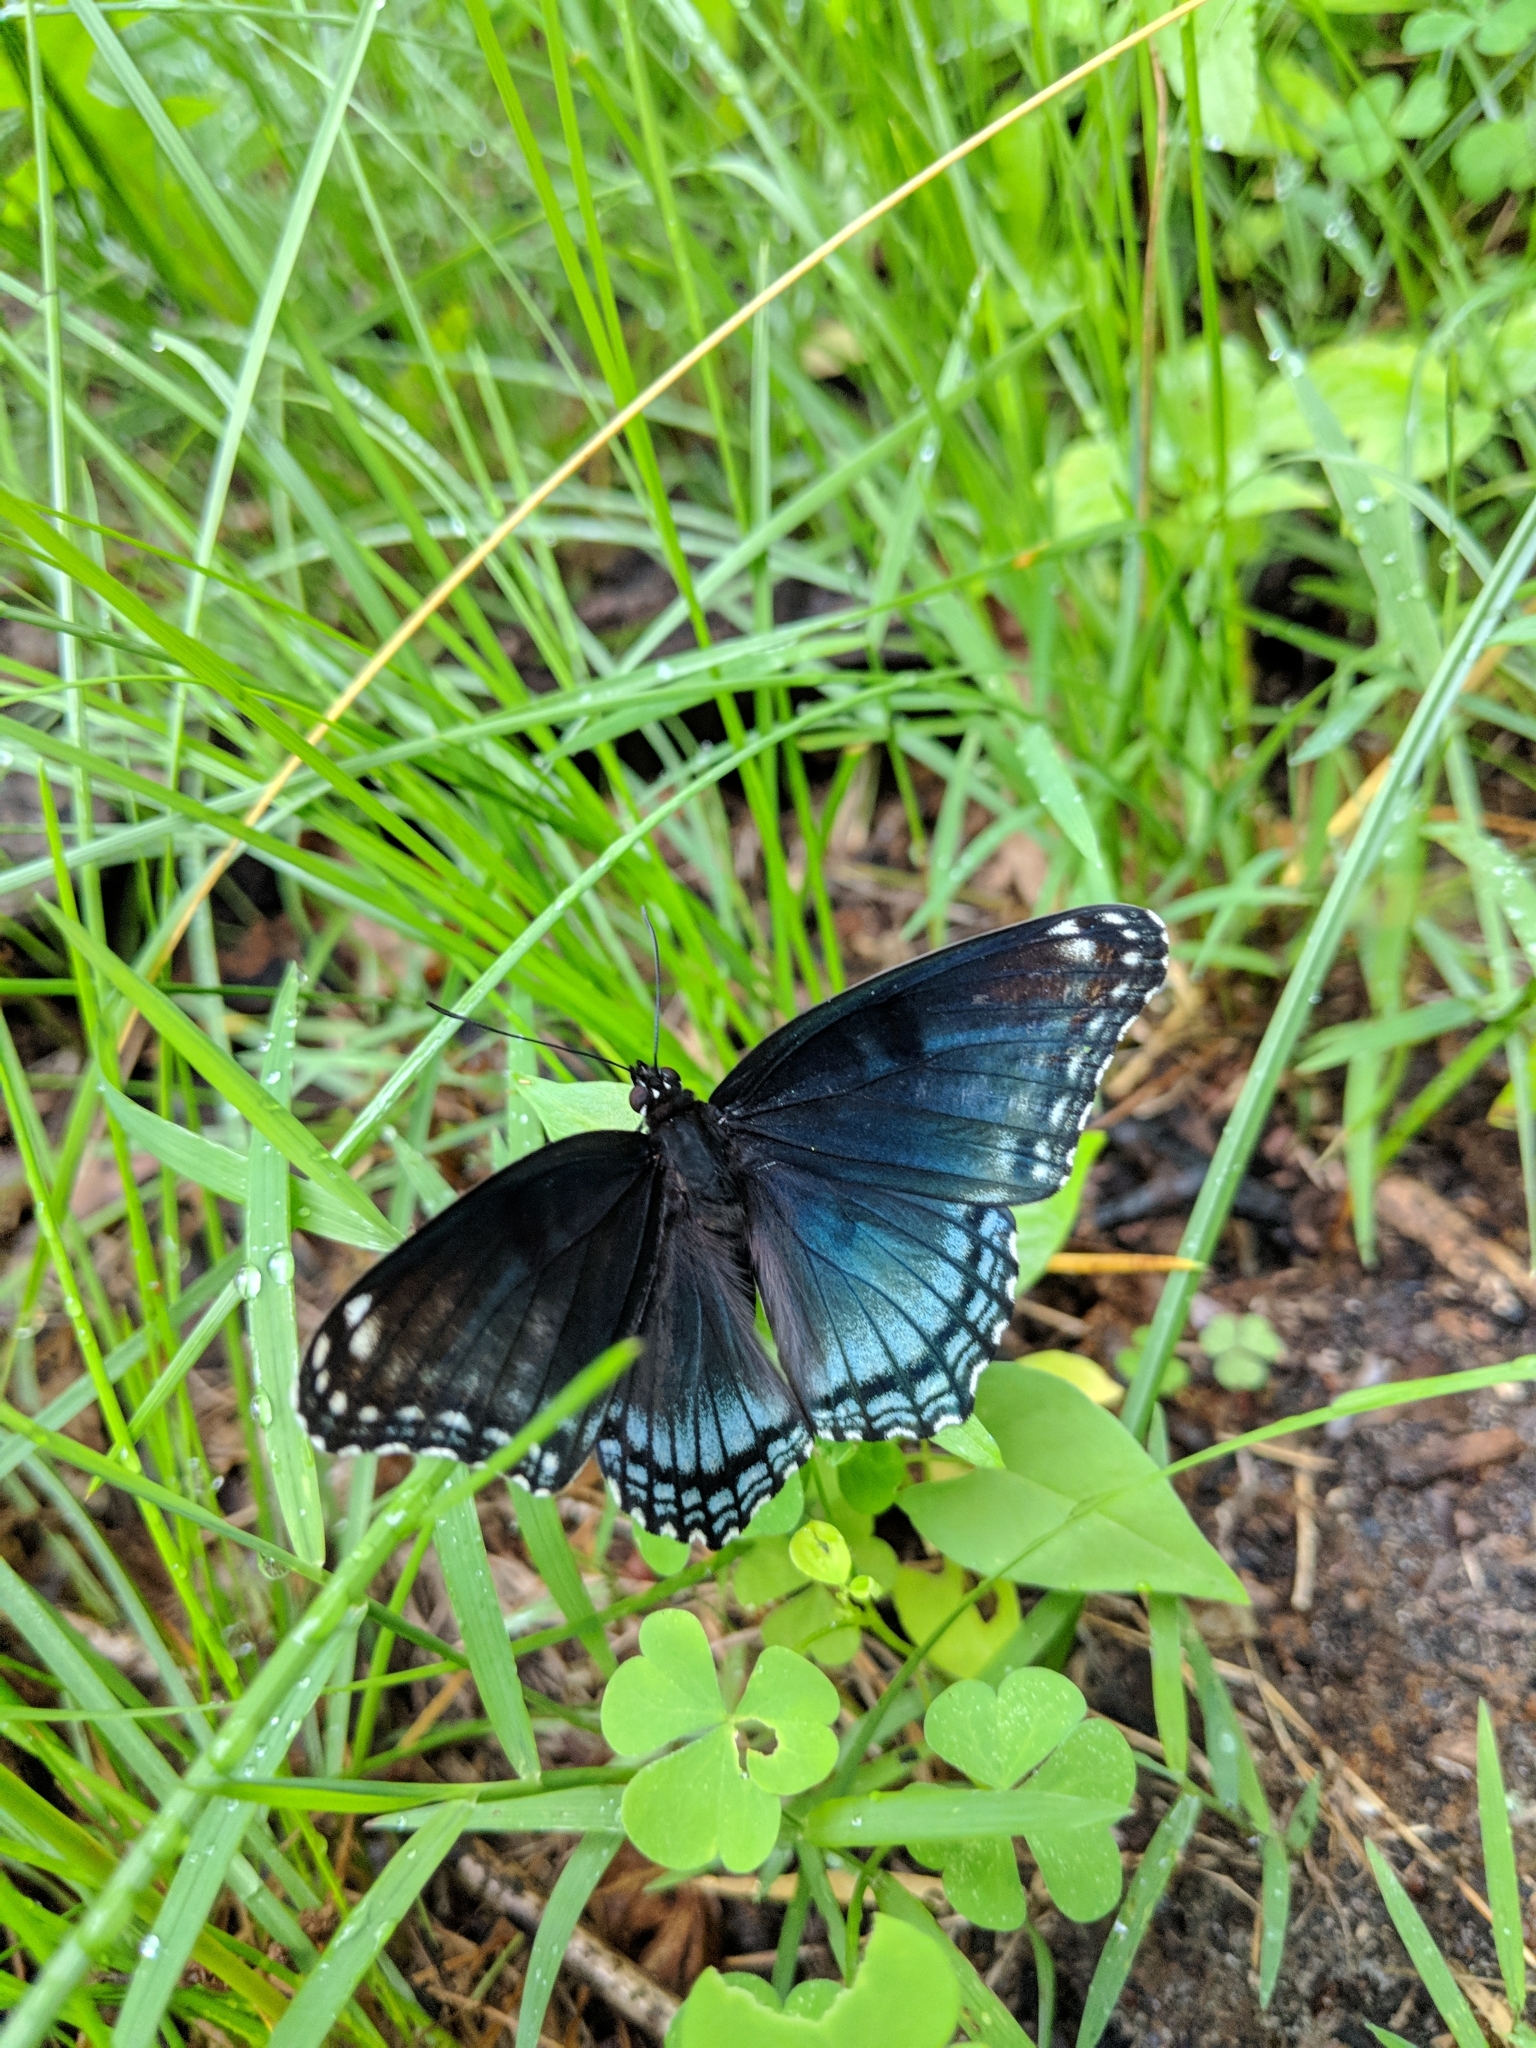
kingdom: Animalia
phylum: Arthropoda
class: Insecta
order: Lepidoptera
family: Nymphalidae
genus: Limenitis
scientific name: Limenitis astyanax
